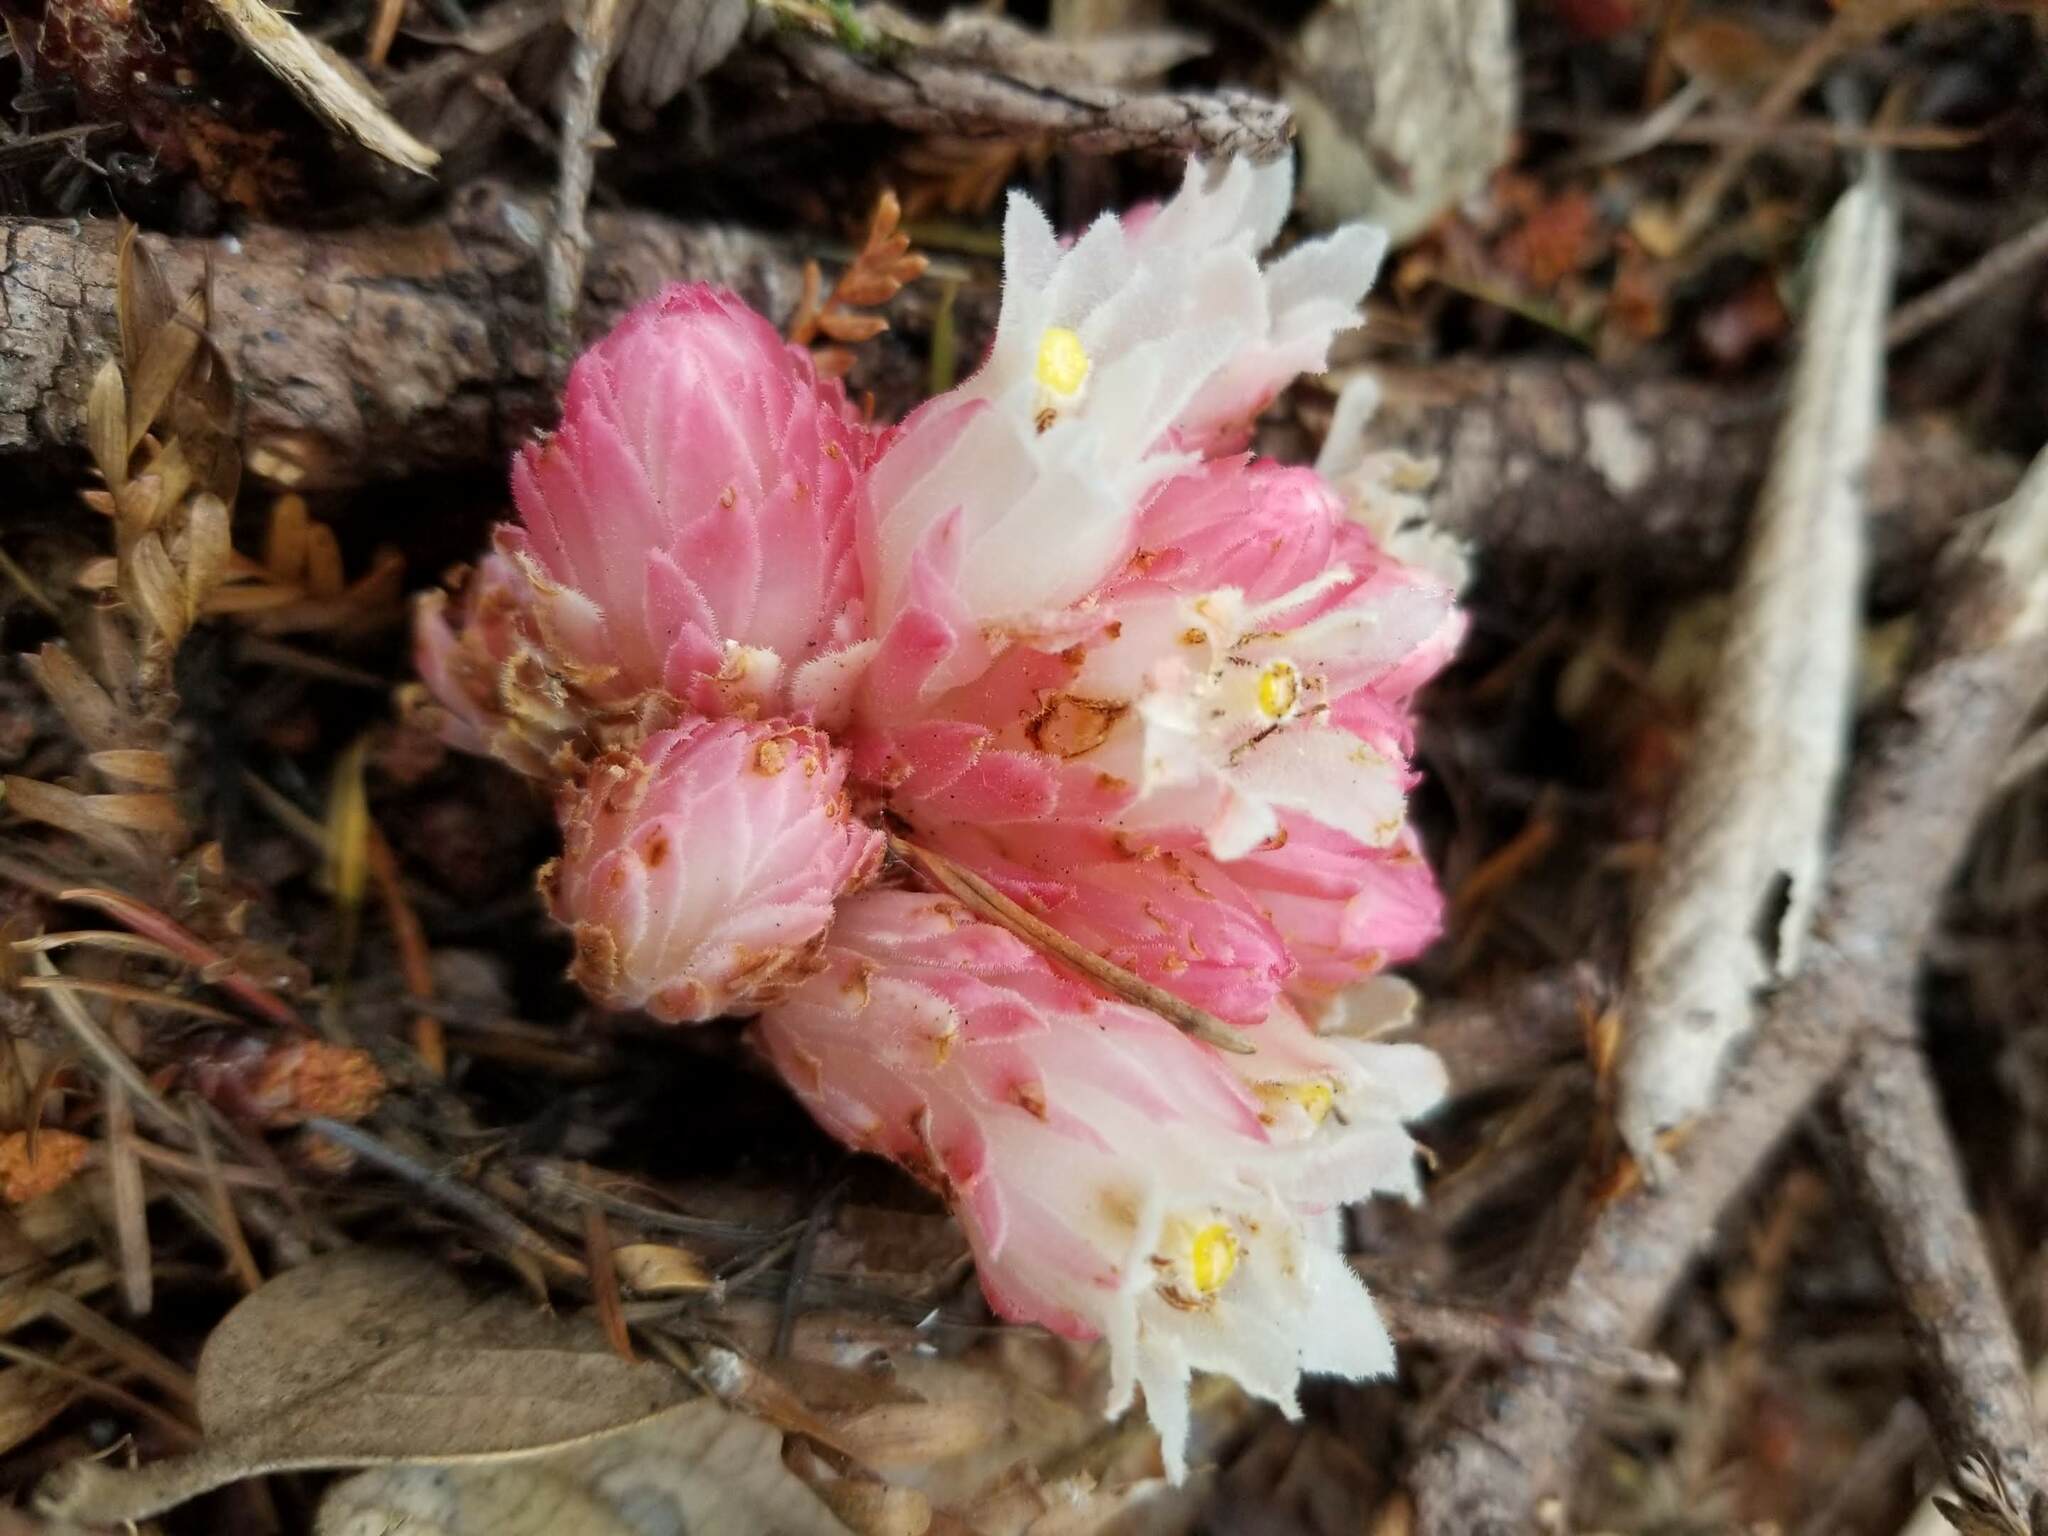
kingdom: Plantae
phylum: Tracheophyta
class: Magnoliopsida
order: Ericales
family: Ericaceae
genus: Hemitomes
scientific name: Hemitomes congestum
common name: Cone plant
